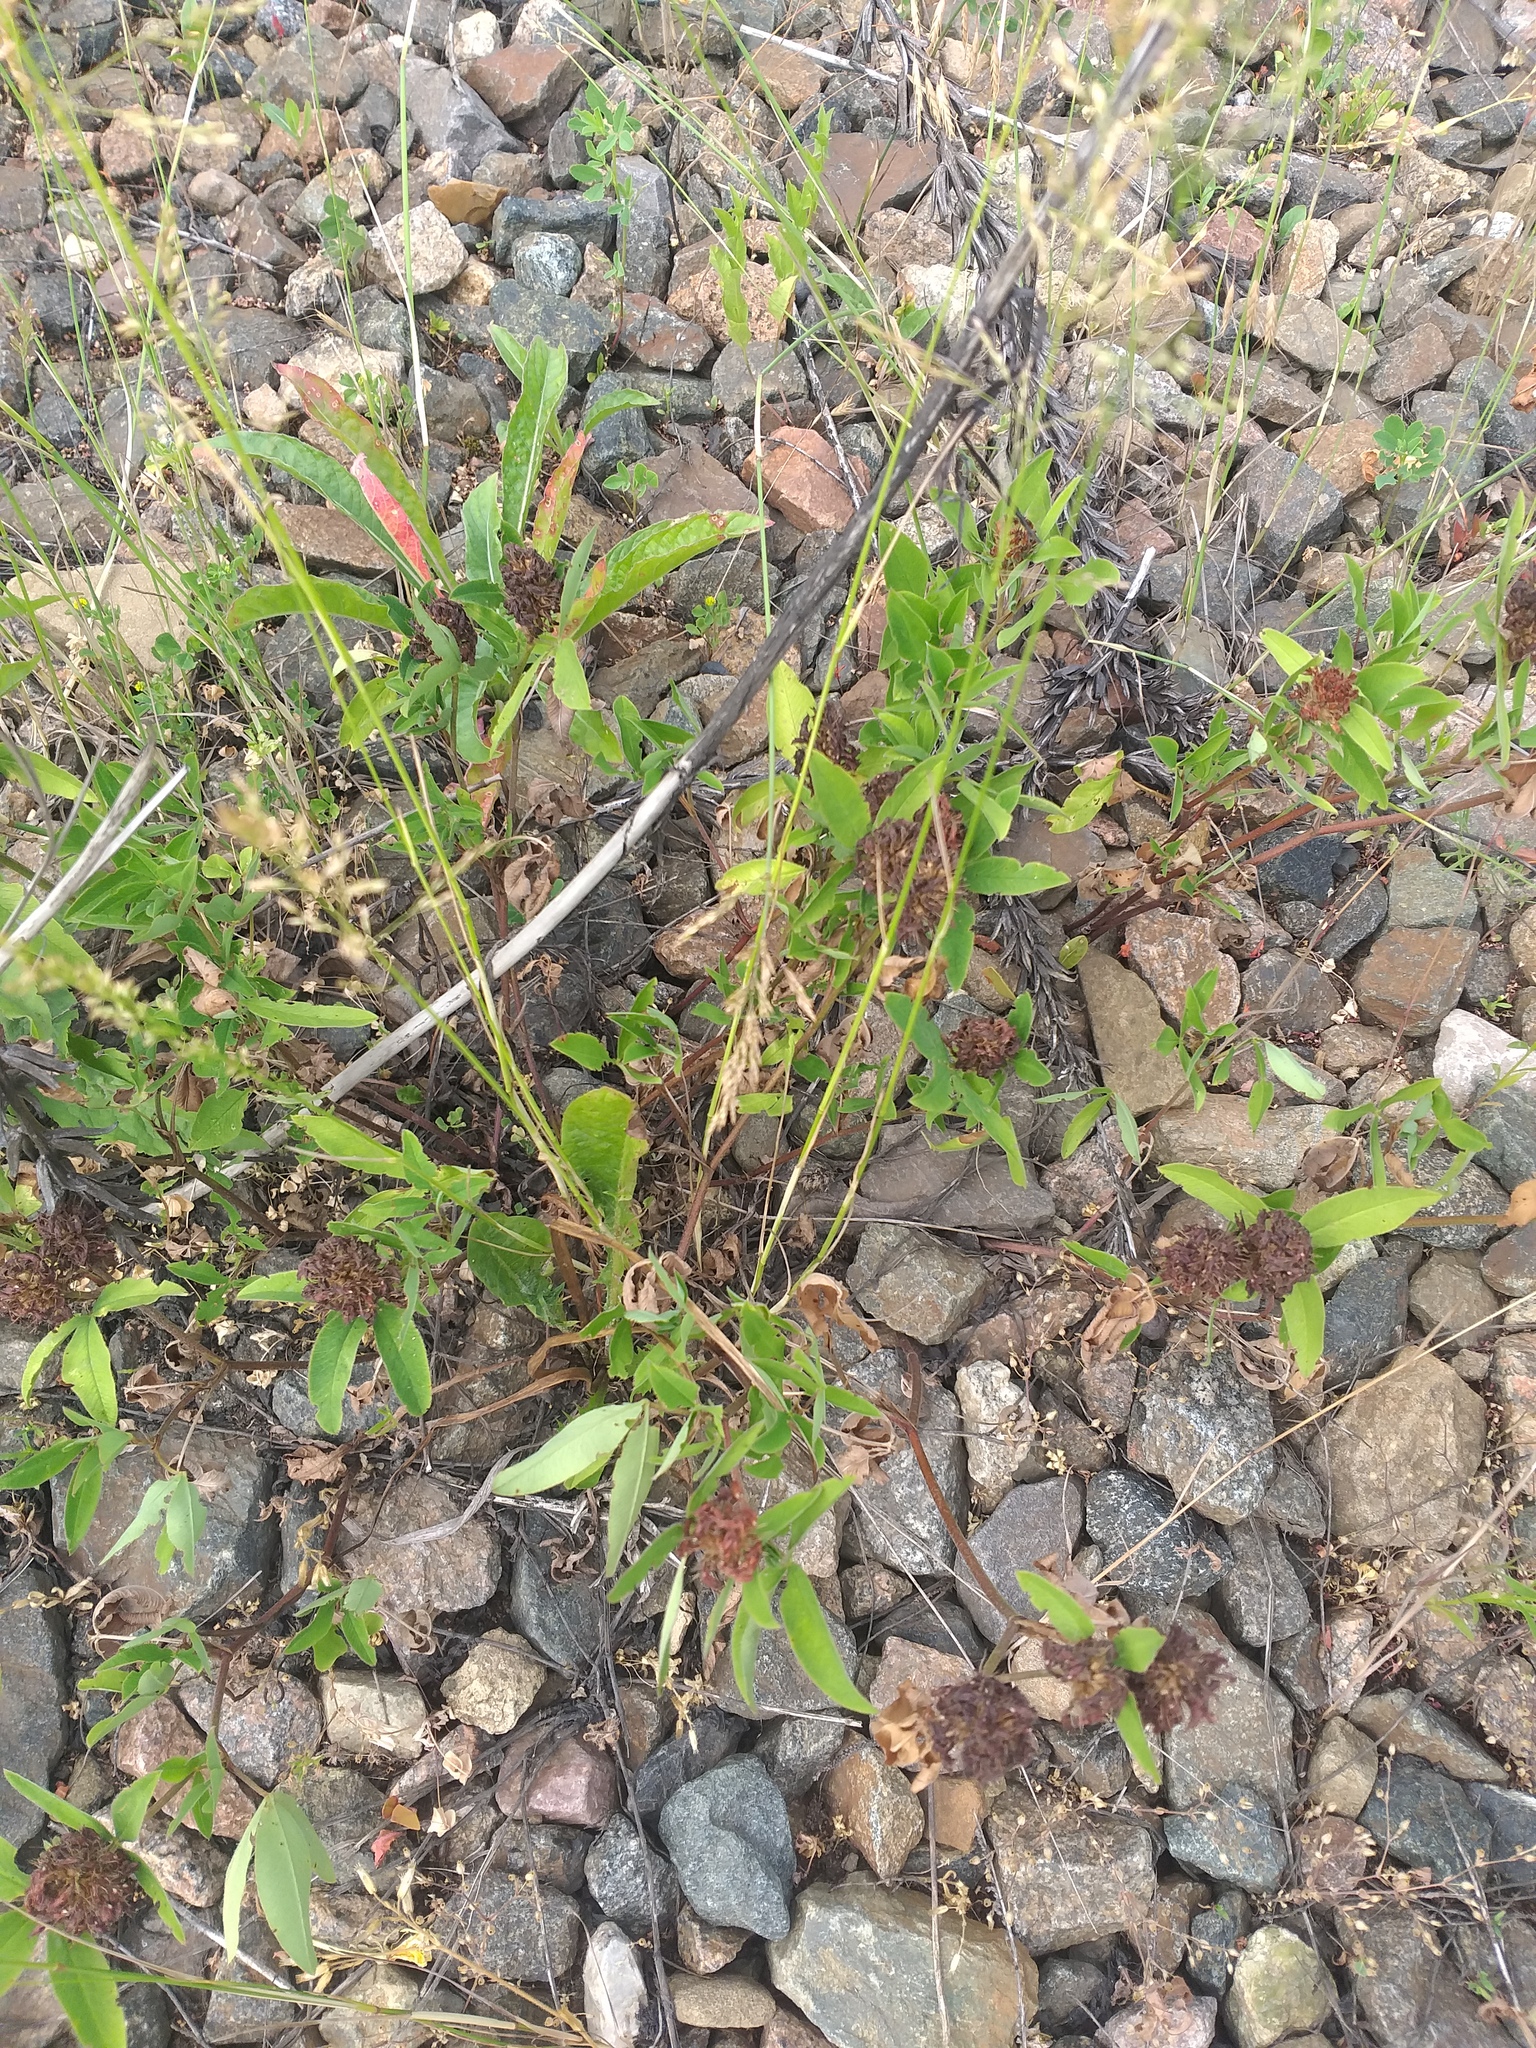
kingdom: Plantae
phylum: Tracheophyta
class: Magnoliopsida
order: Fabales
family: Fabaceae
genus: Trifolium
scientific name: Trifolium medium
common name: Zigzag clover
